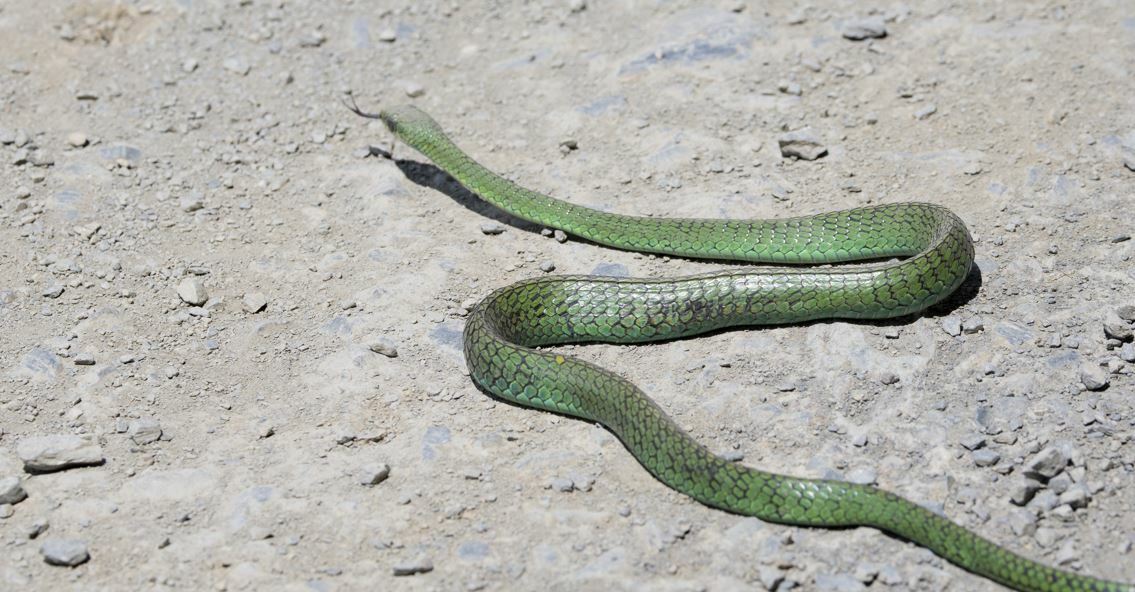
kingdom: Animalia
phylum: Chordata
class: Squamata
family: Colubridae
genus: Chironius
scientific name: Chironius monticola
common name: Mountain sipo
